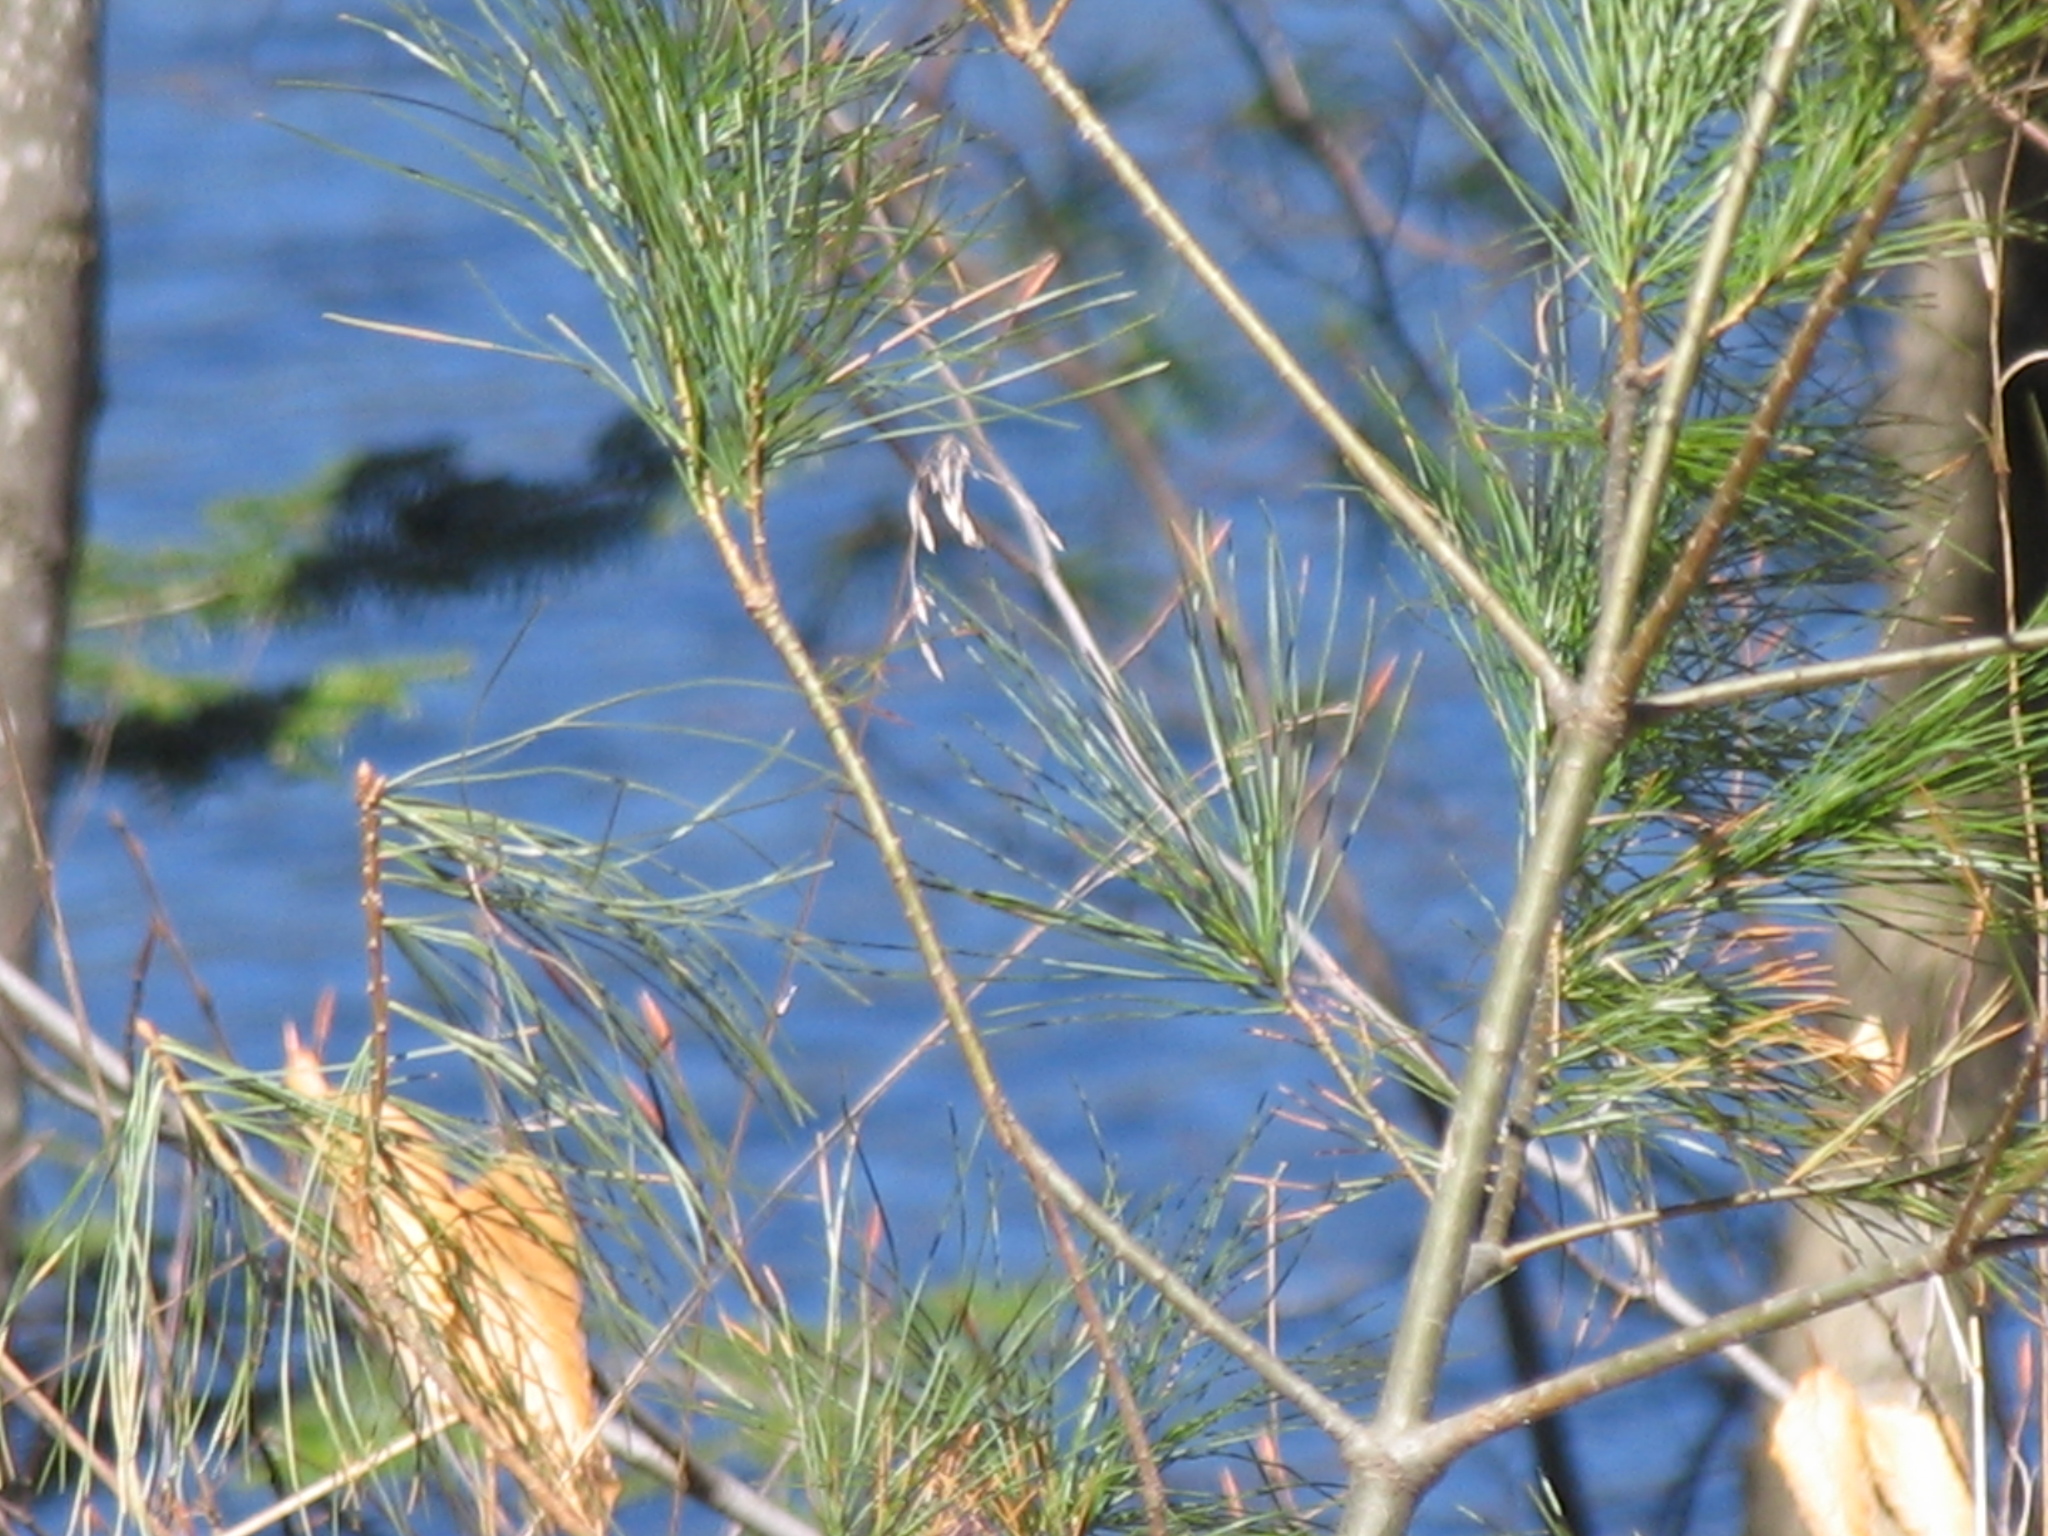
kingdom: Plantae
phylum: Tracheophyta
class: Pinopsida
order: Pinales
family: Pinaceae
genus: Pinus
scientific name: Pinus strobus
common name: Weymouth pine
